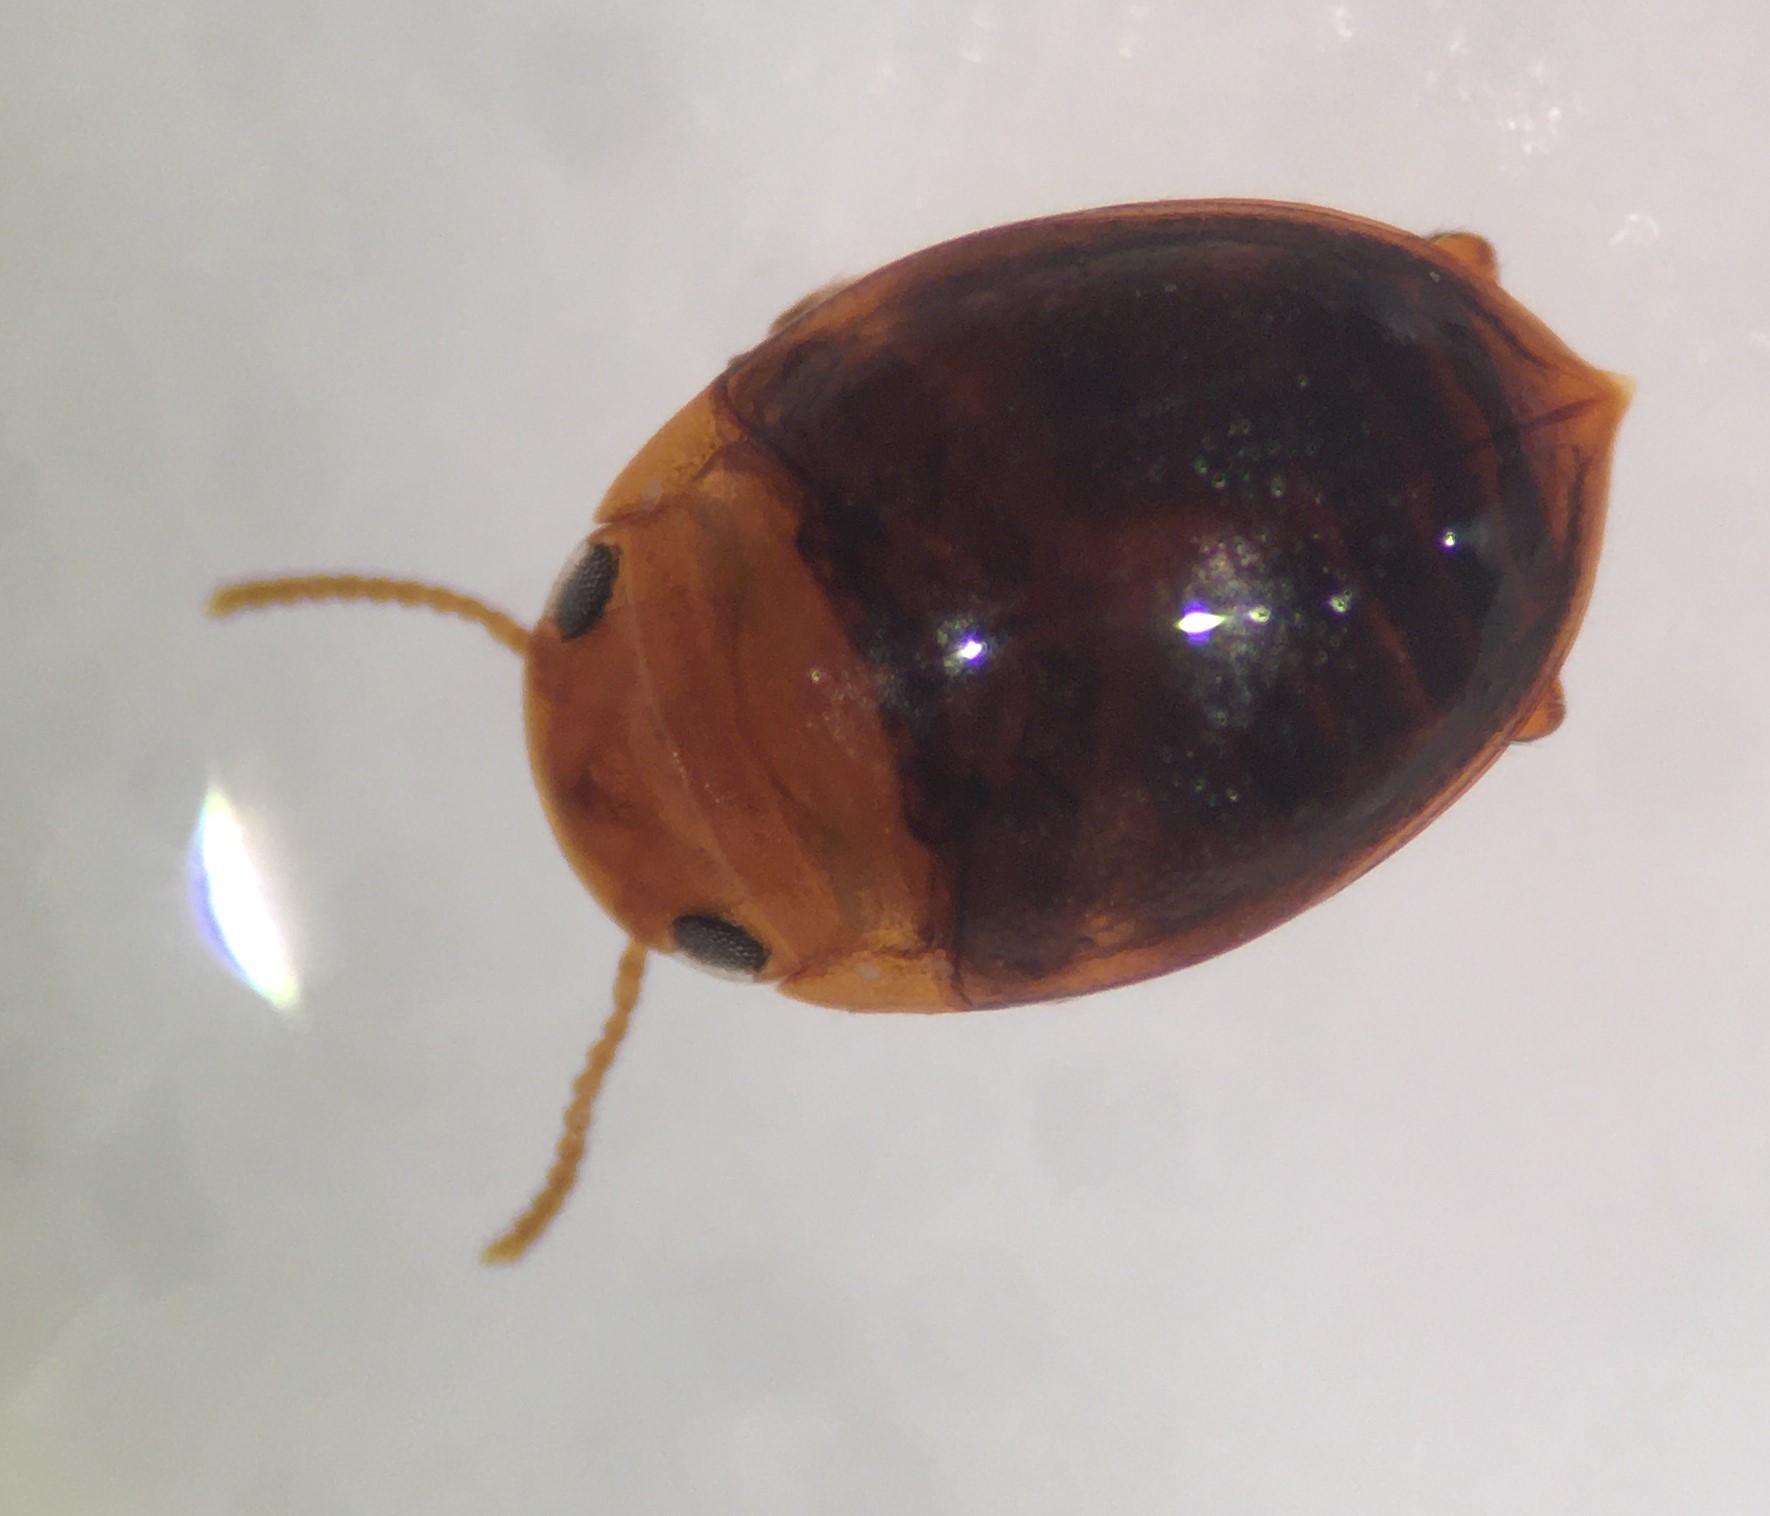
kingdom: Animalia
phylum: Arthropoda
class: Insecta
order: Coleoptera
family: Dytiscidae
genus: Hydrovatus
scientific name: Hydrovatus pustulatus
